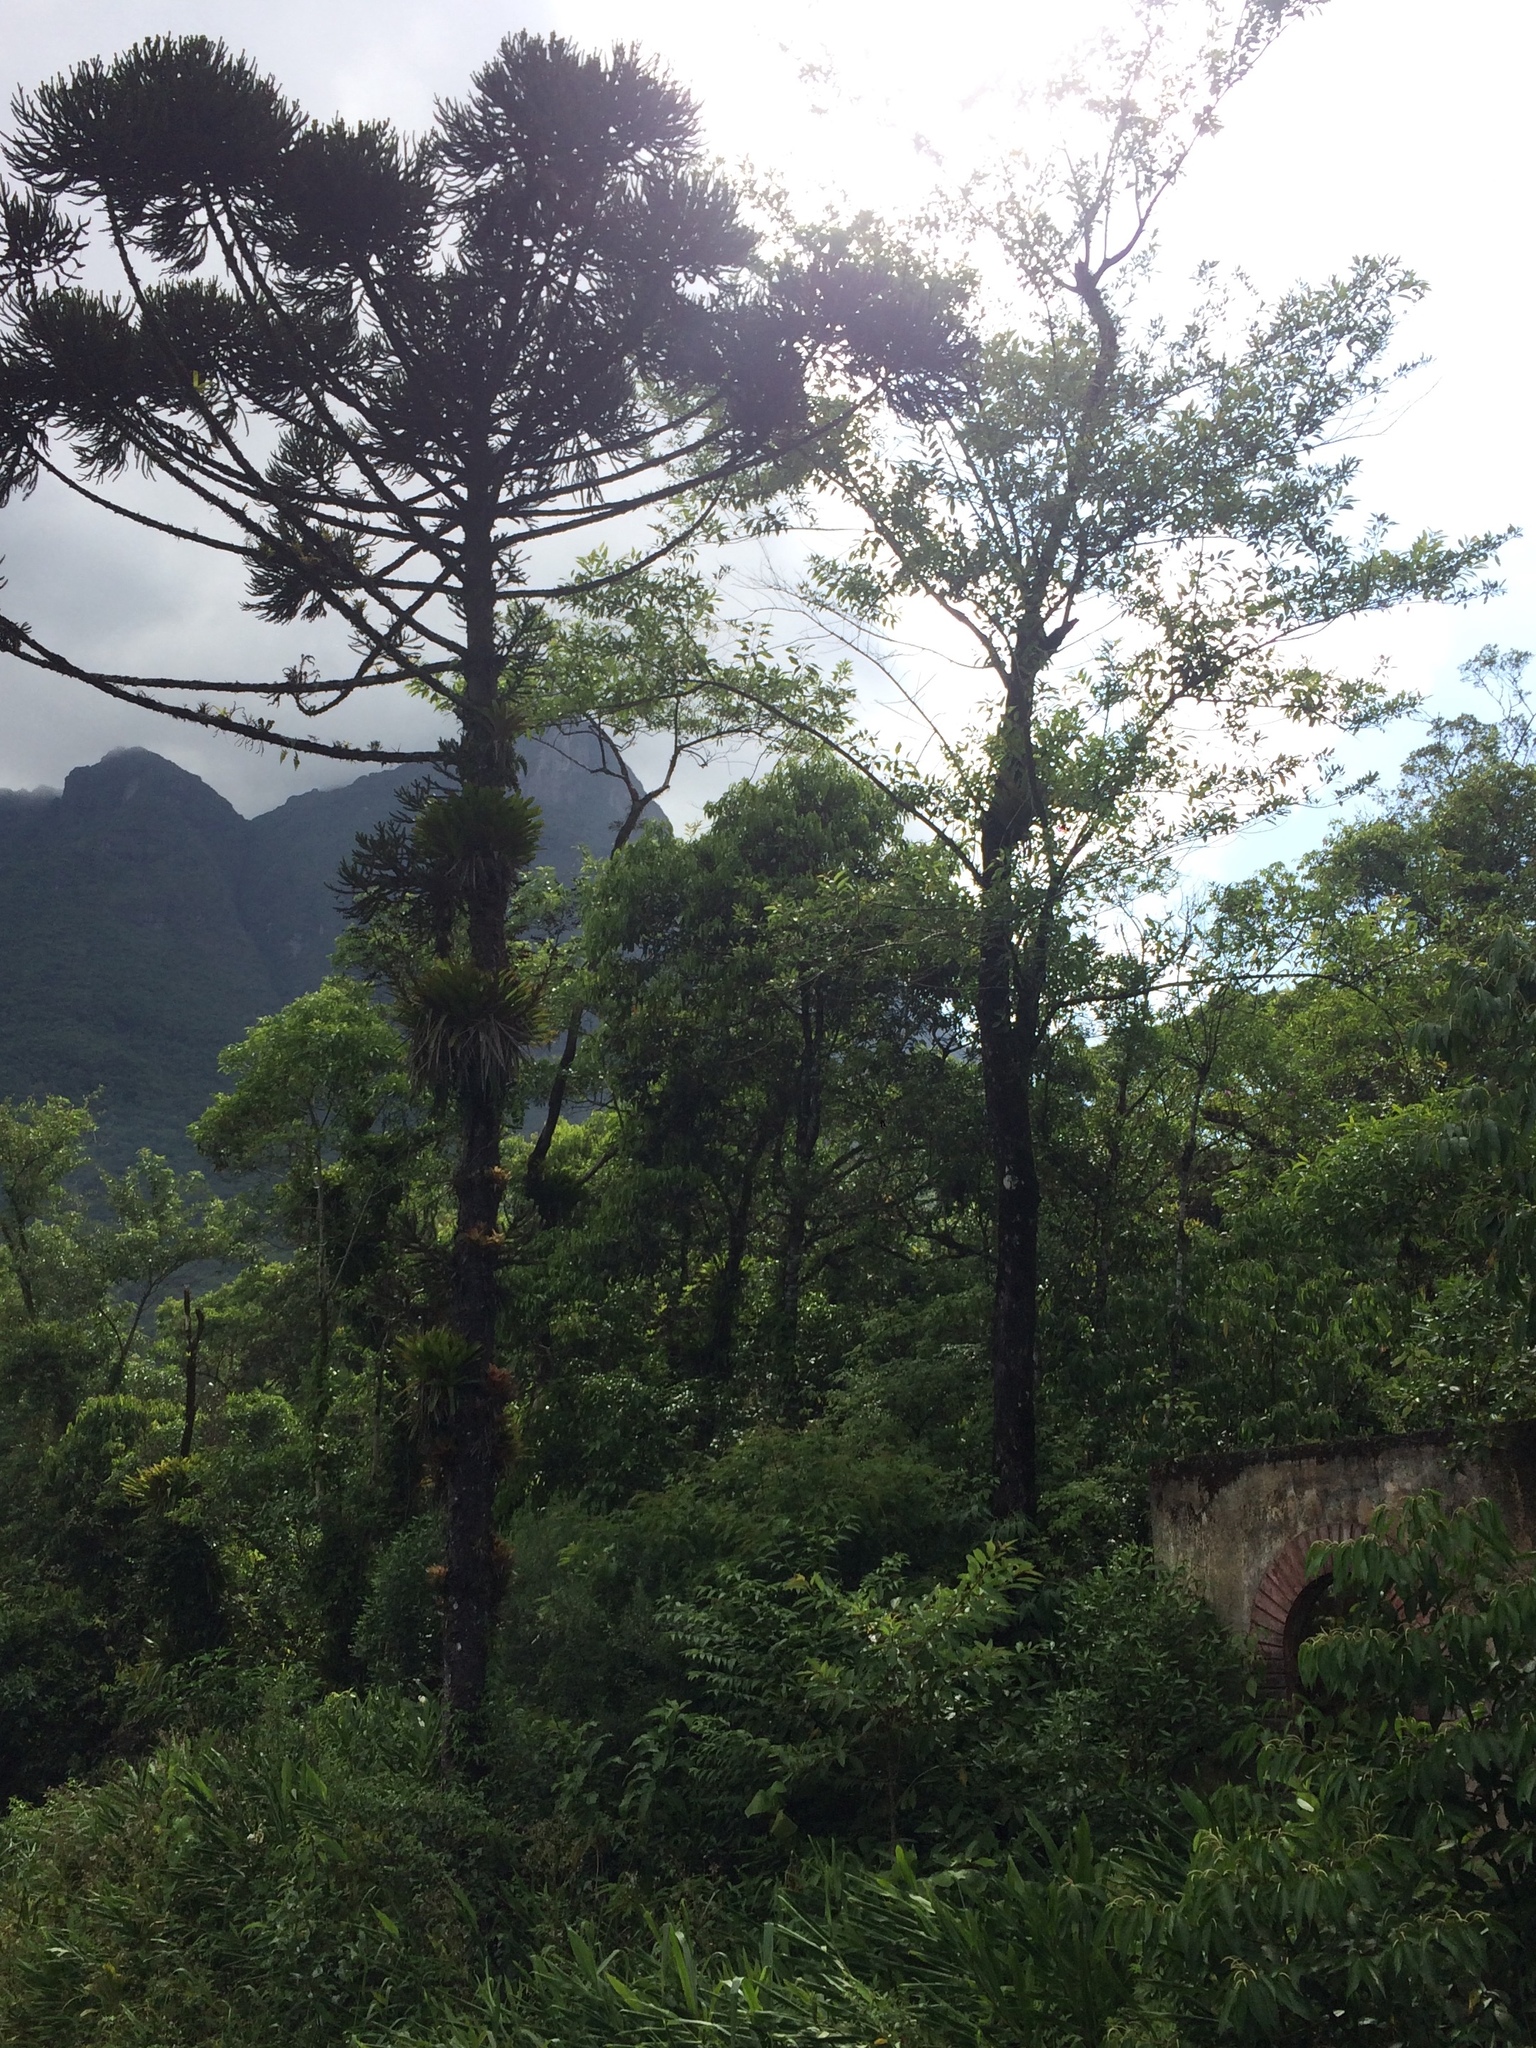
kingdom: Plantae
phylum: Tracheophyta
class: Pinopsida
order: Pinales
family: Araucariaceae
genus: Araucaria
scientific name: Araucaria angustifolia
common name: Candelabra tree
